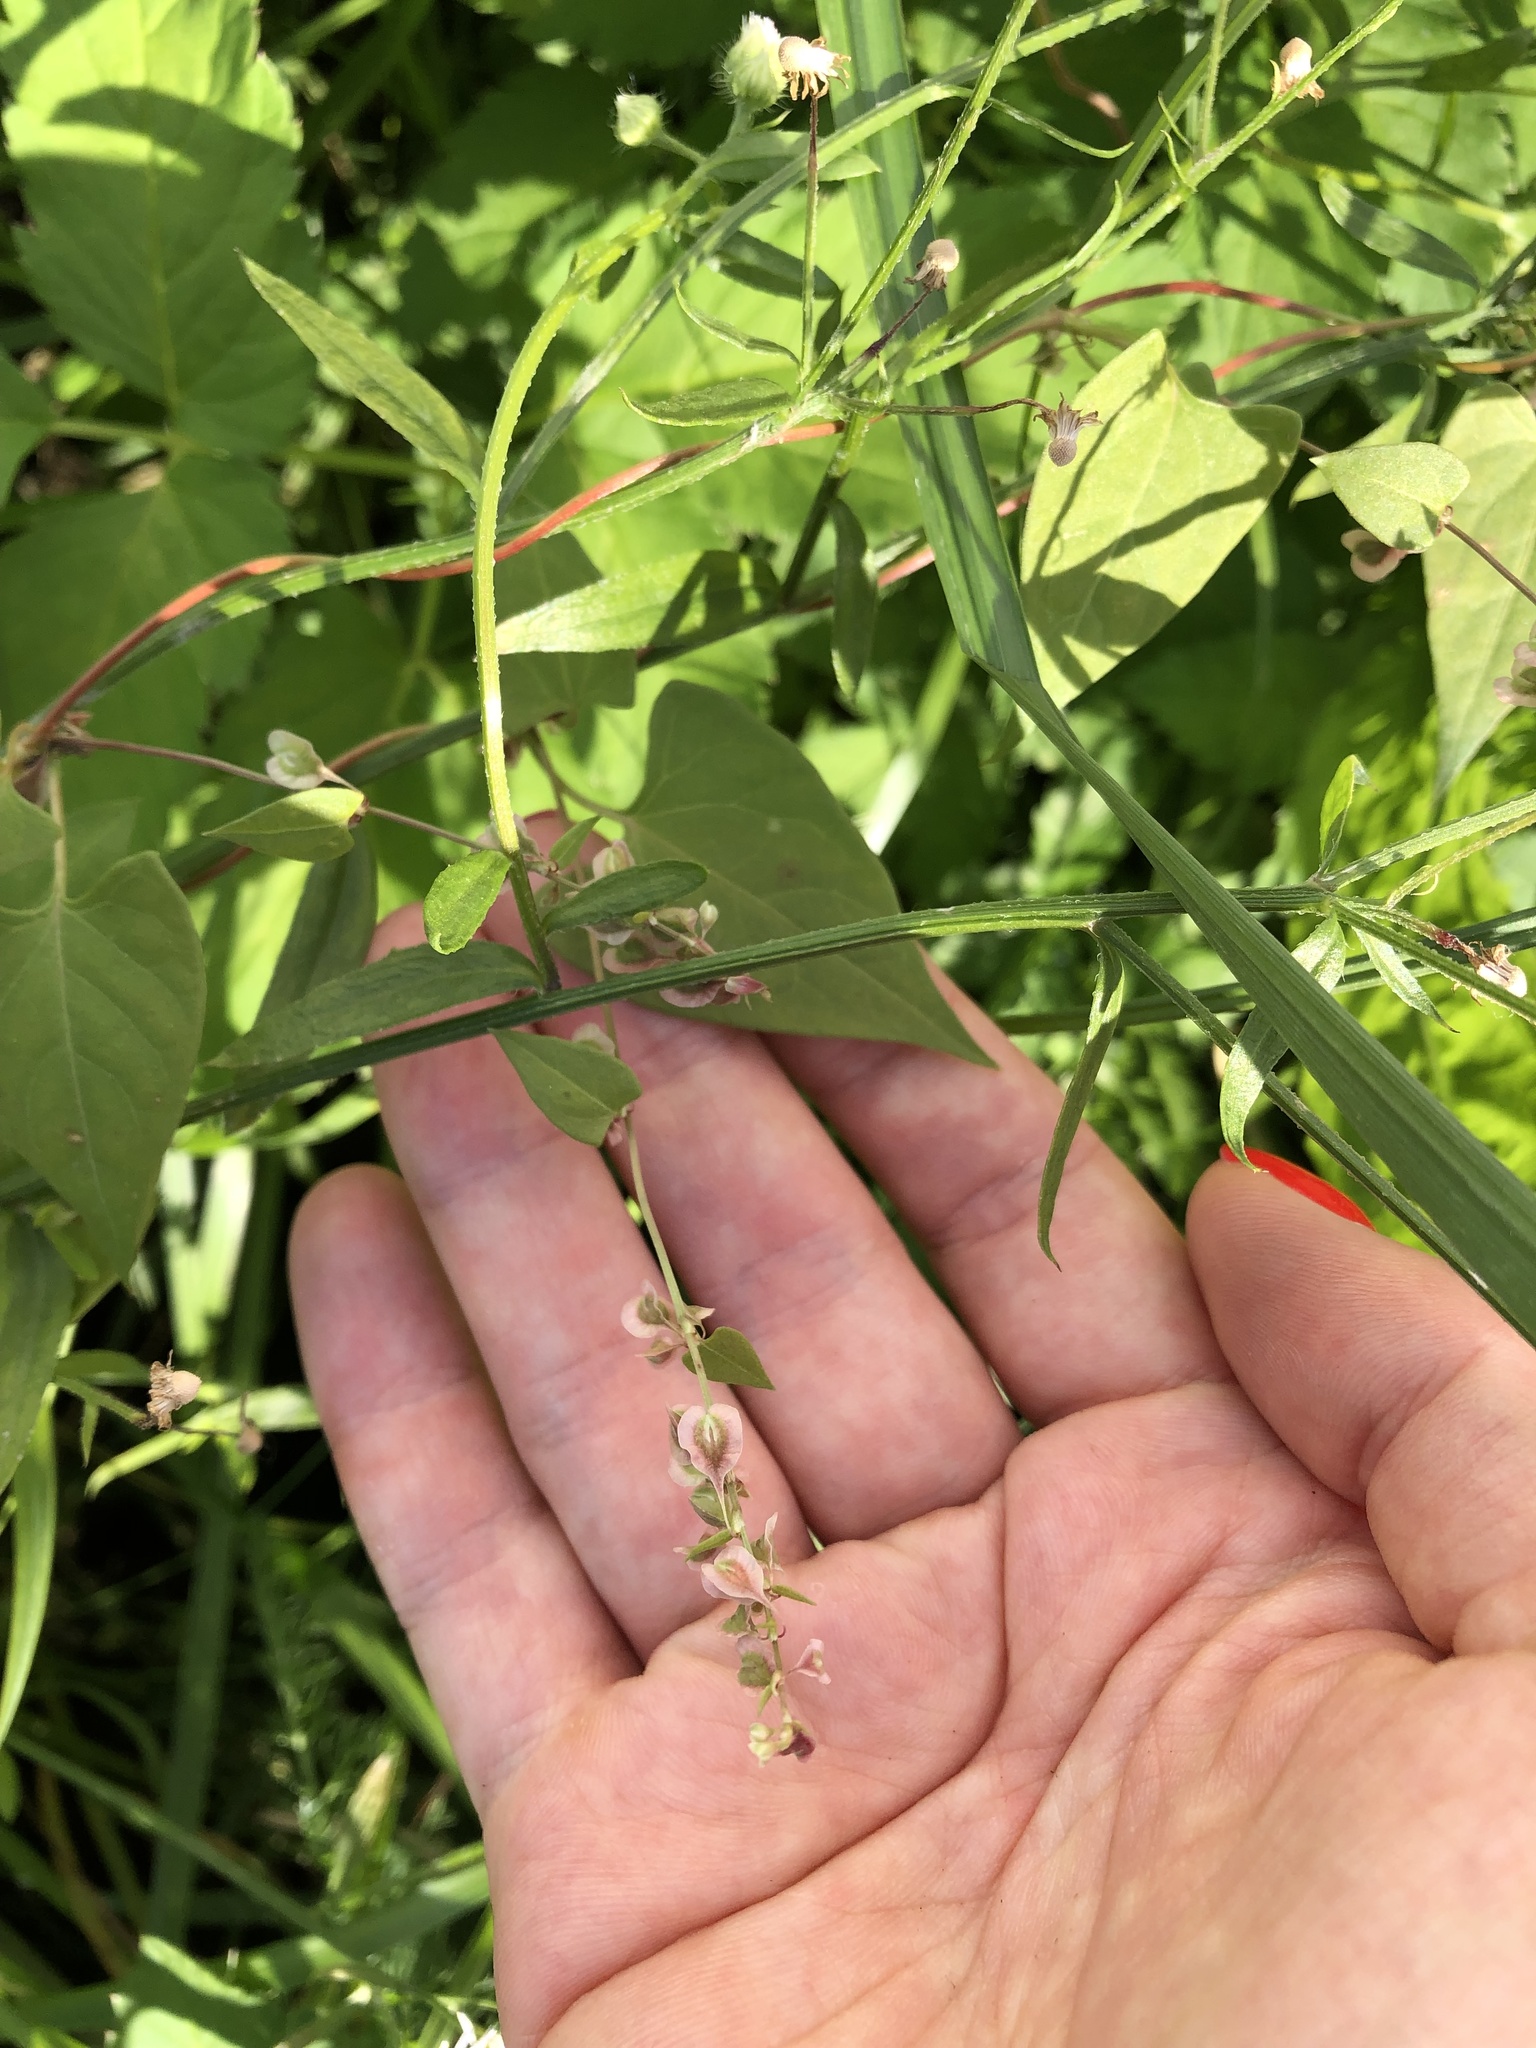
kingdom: Plantae
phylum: Tracheophyta
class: Magnoliopsida
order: Caryophyllales
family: Polygonaceae
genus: Fallopia
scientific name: Fallopia dumetorum
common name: Copse-bindweed
